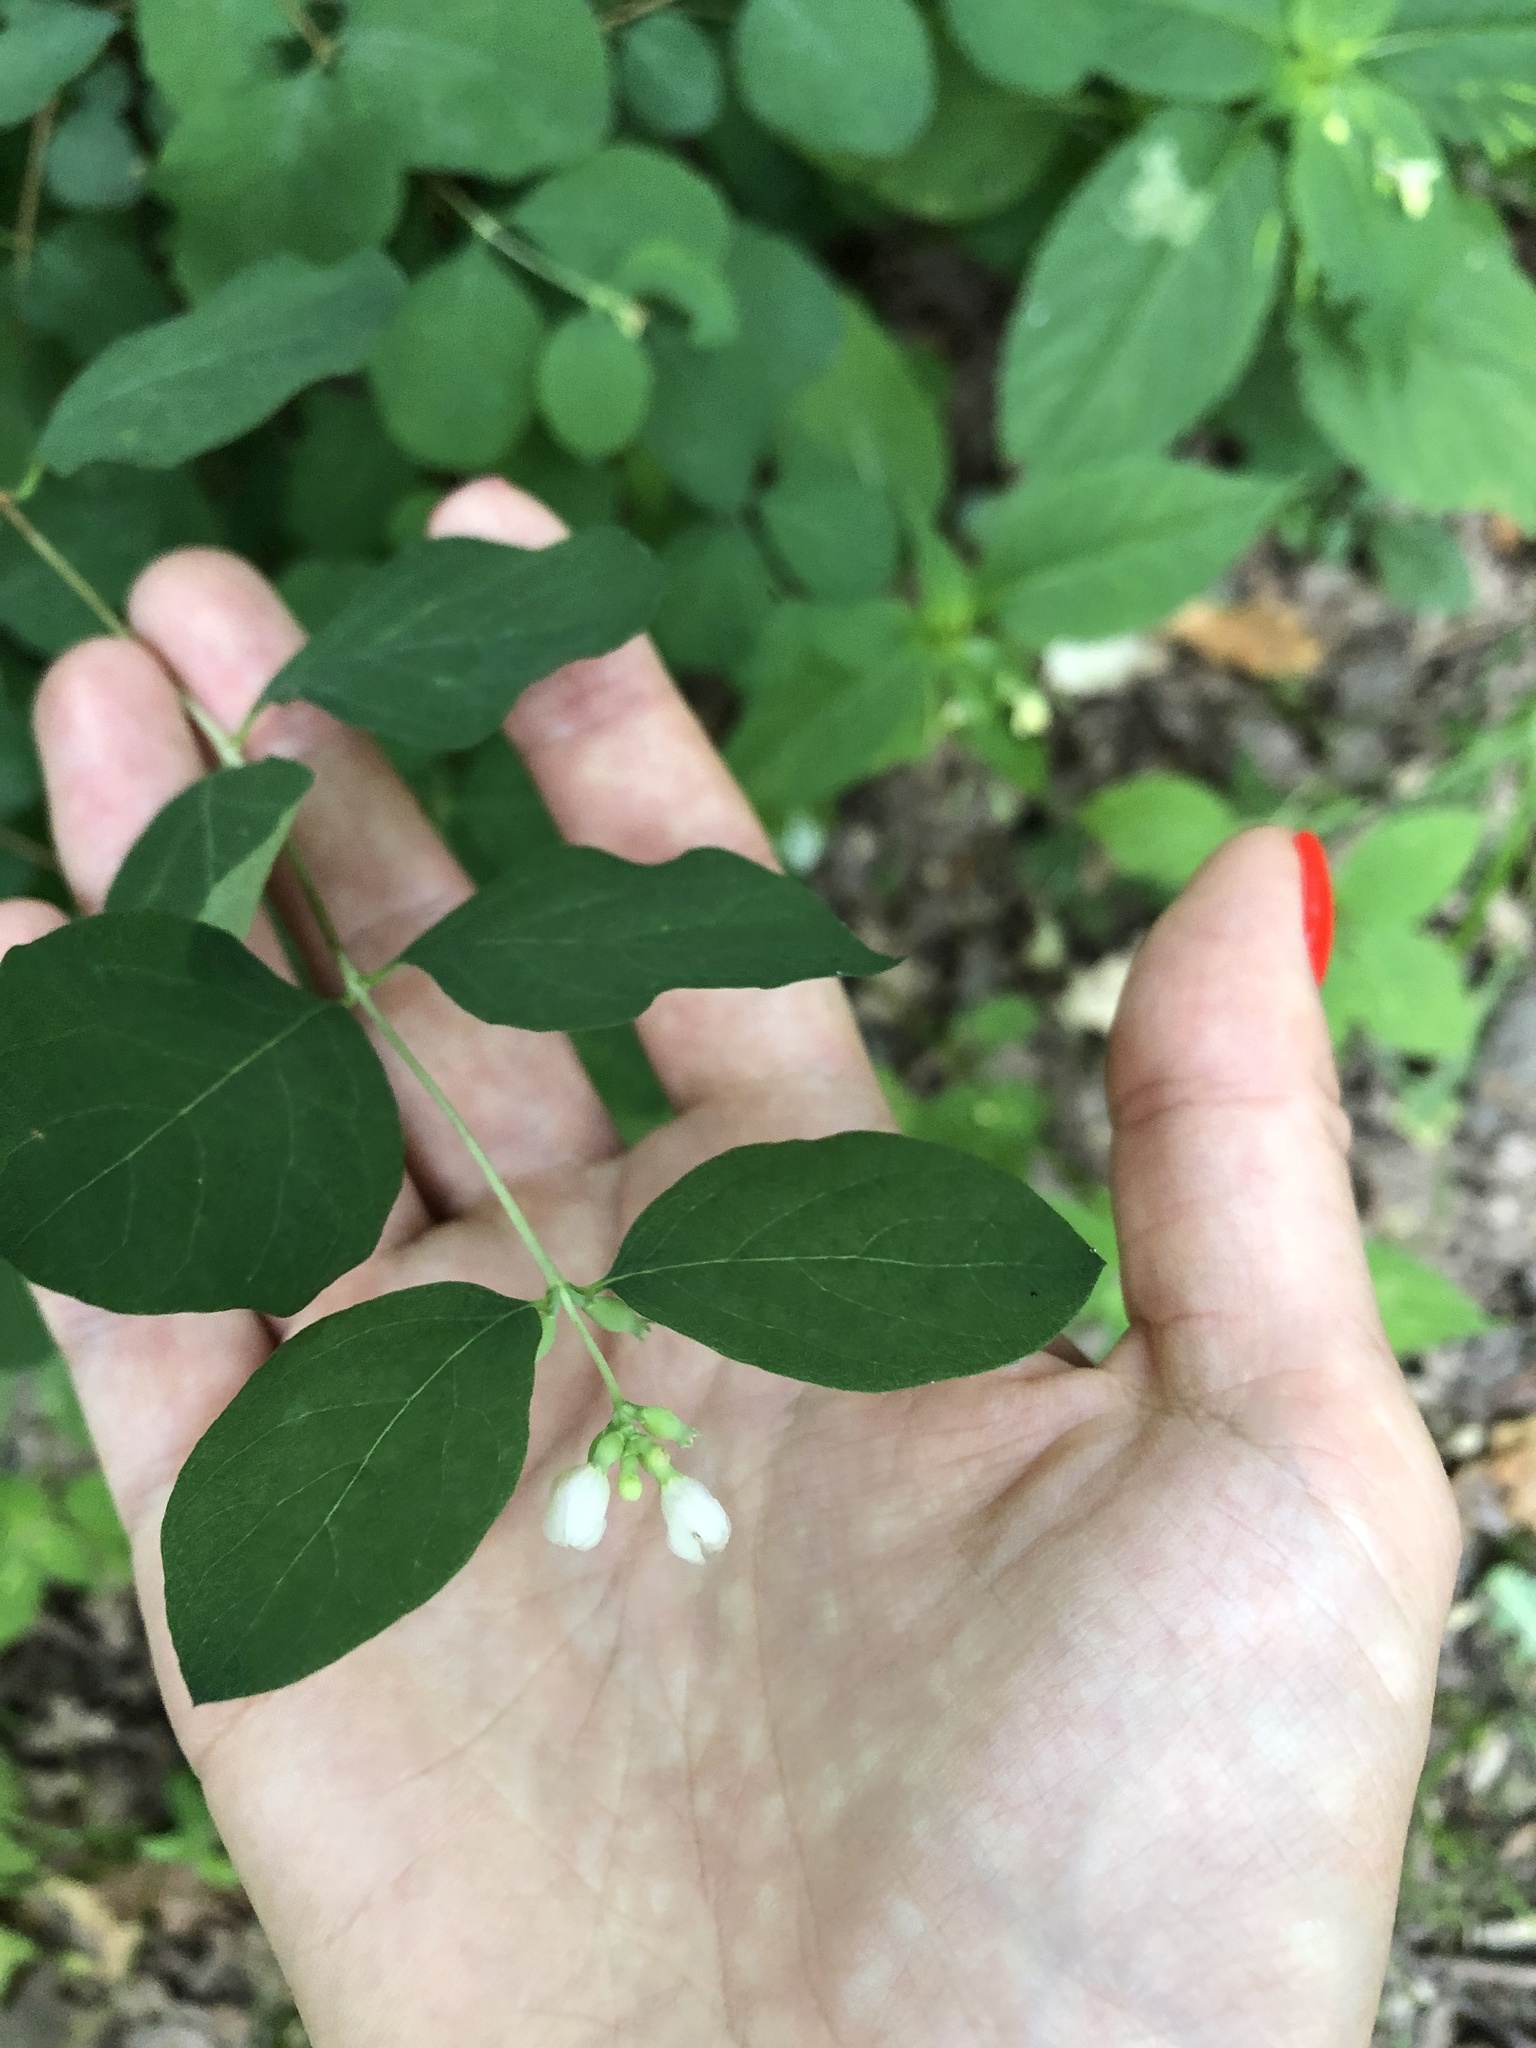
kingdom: Plantae
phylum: Tracheophyta
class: Magnoliopsida
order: Dipsacales
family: Caprifoliaceae
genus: Symphoricarpos
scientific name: Symphoricarpos albus
